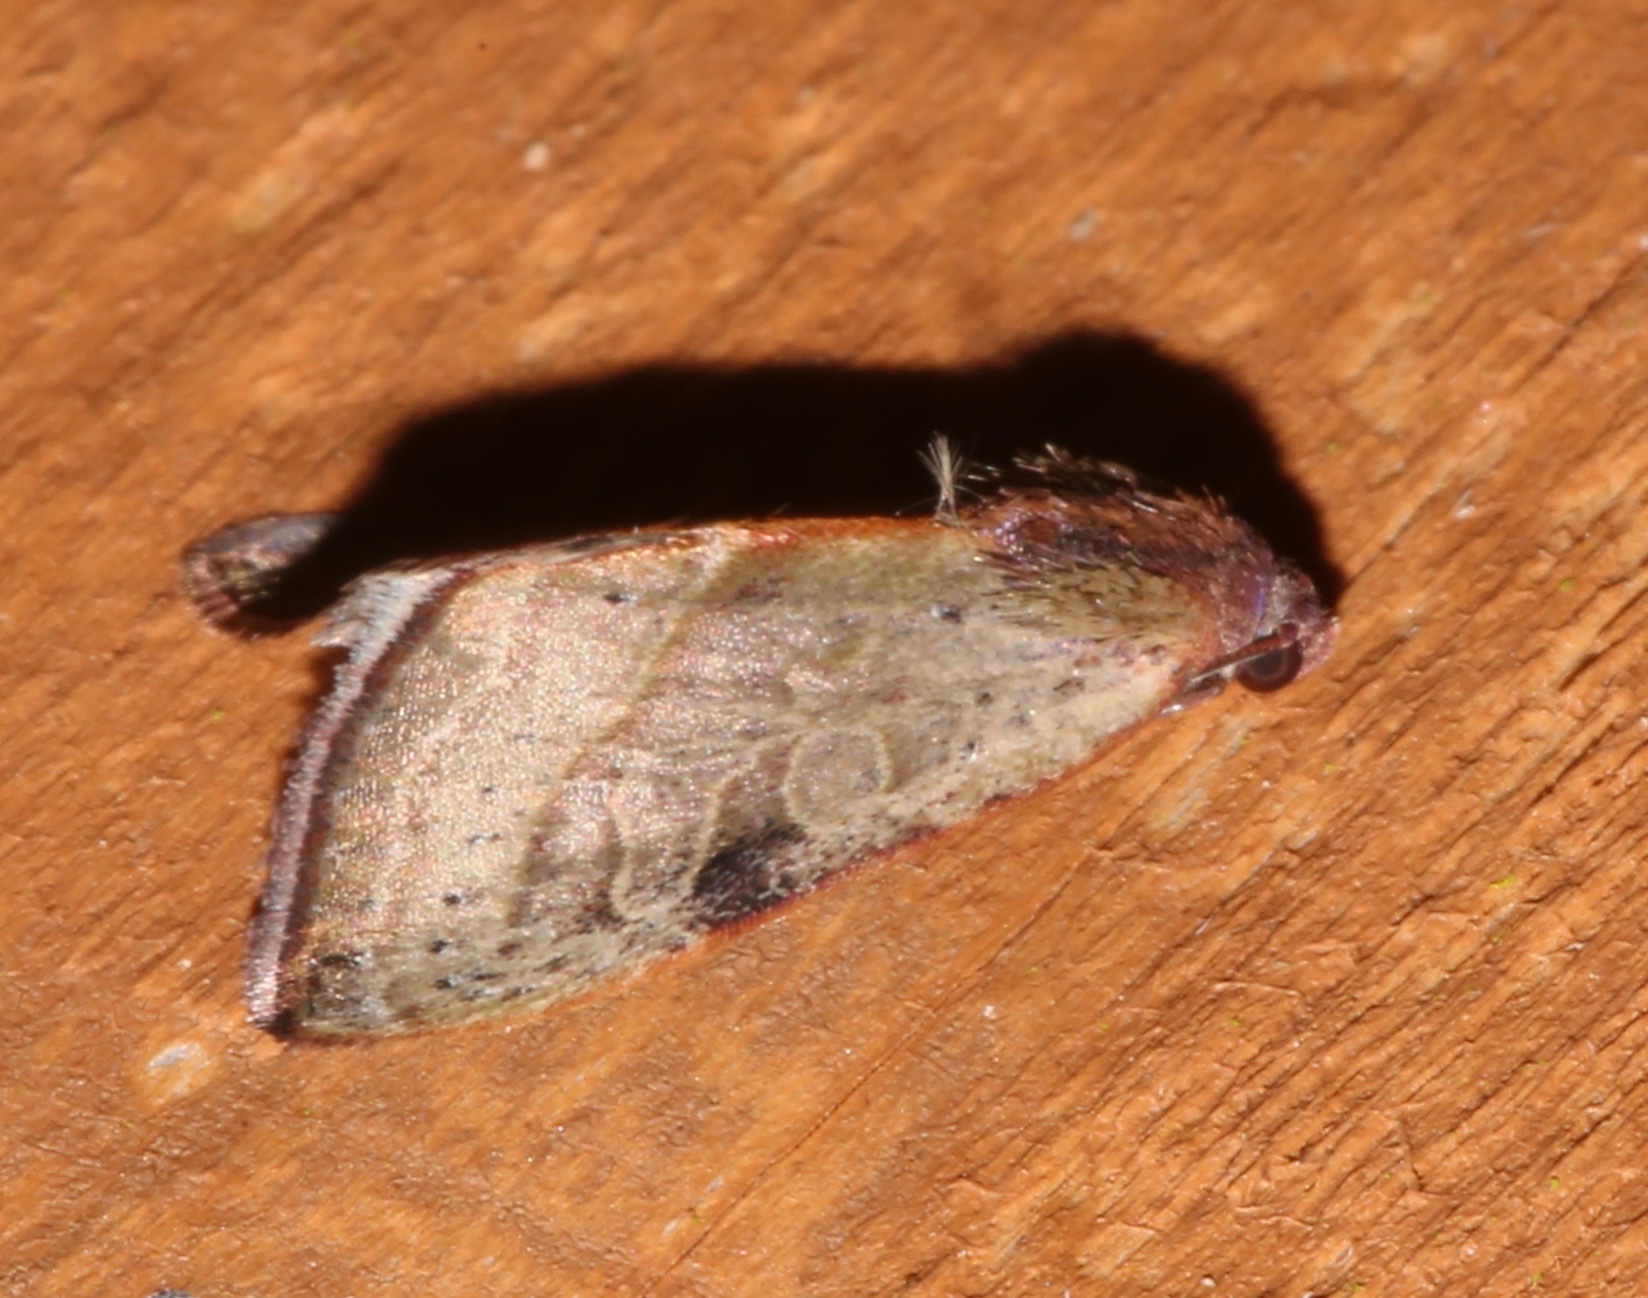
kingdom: Animalia
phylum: Arthropoda
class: Insecta
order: Lepidoptera
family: Noctuidae
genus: Galgula
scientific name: Galgula partita
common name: Wedgeling
